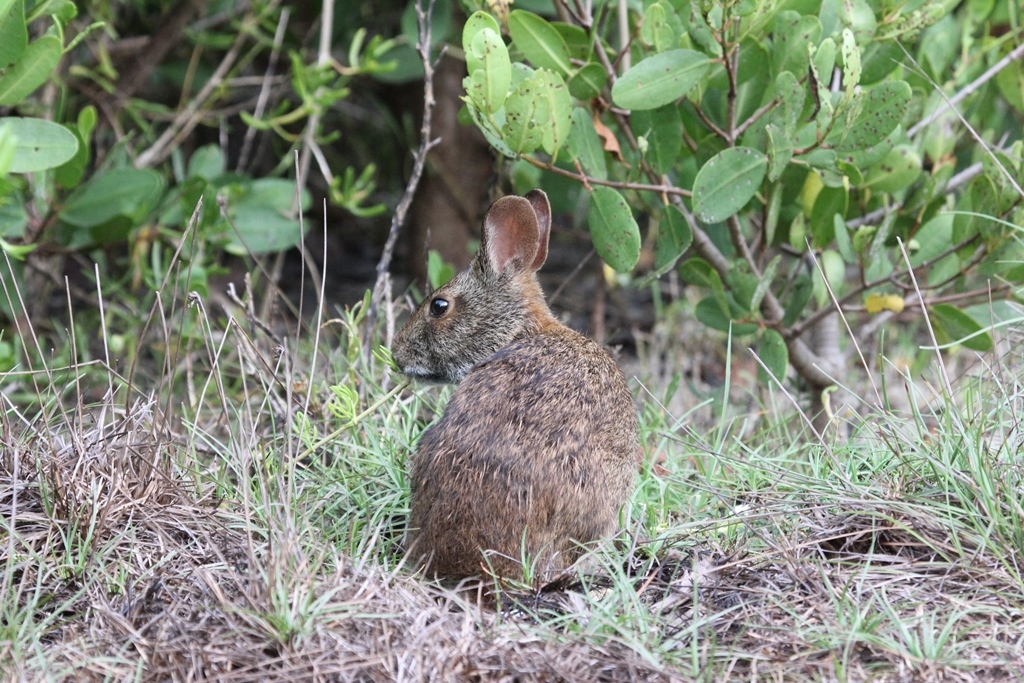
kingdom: Animalia
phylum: Chordata
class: Mammalia
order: Lagomorpha
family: Leporidae
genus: Sylvilagus
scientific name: Sylvilagus palustris
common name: Marsh rabbit
